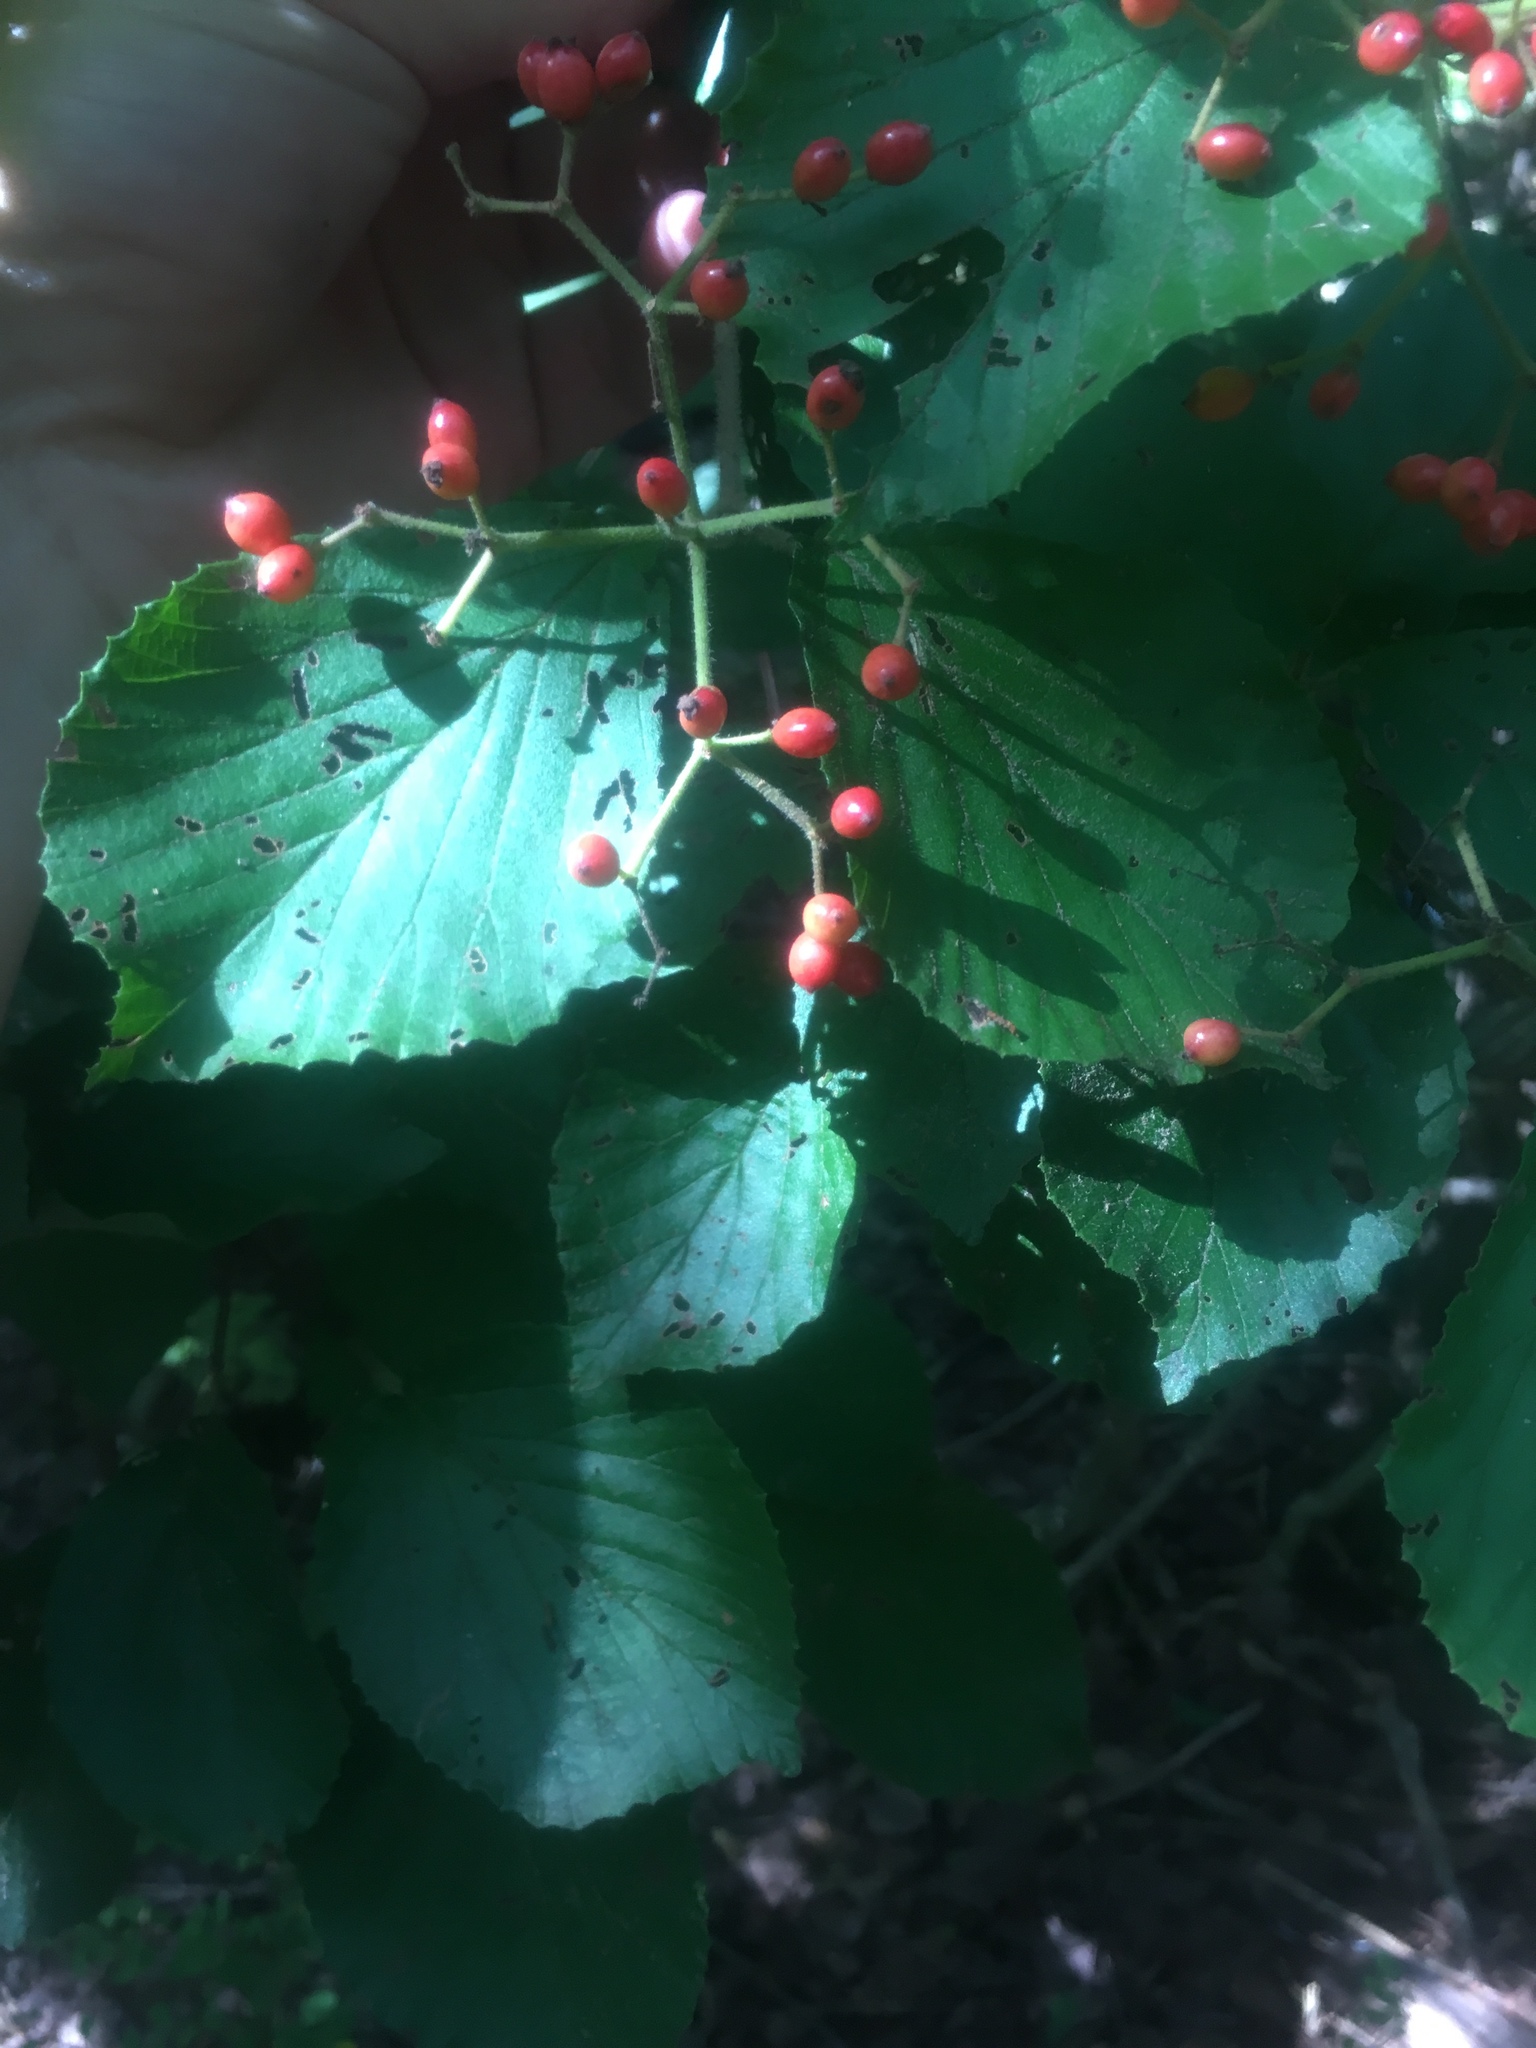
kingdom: Plantae
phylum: Tracheophyta
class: Magnoliopsida
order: Dipsacales
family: Viburnaceae
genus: Viburnum
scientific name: Viburnum dilatatum
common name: Linden arrowwood
